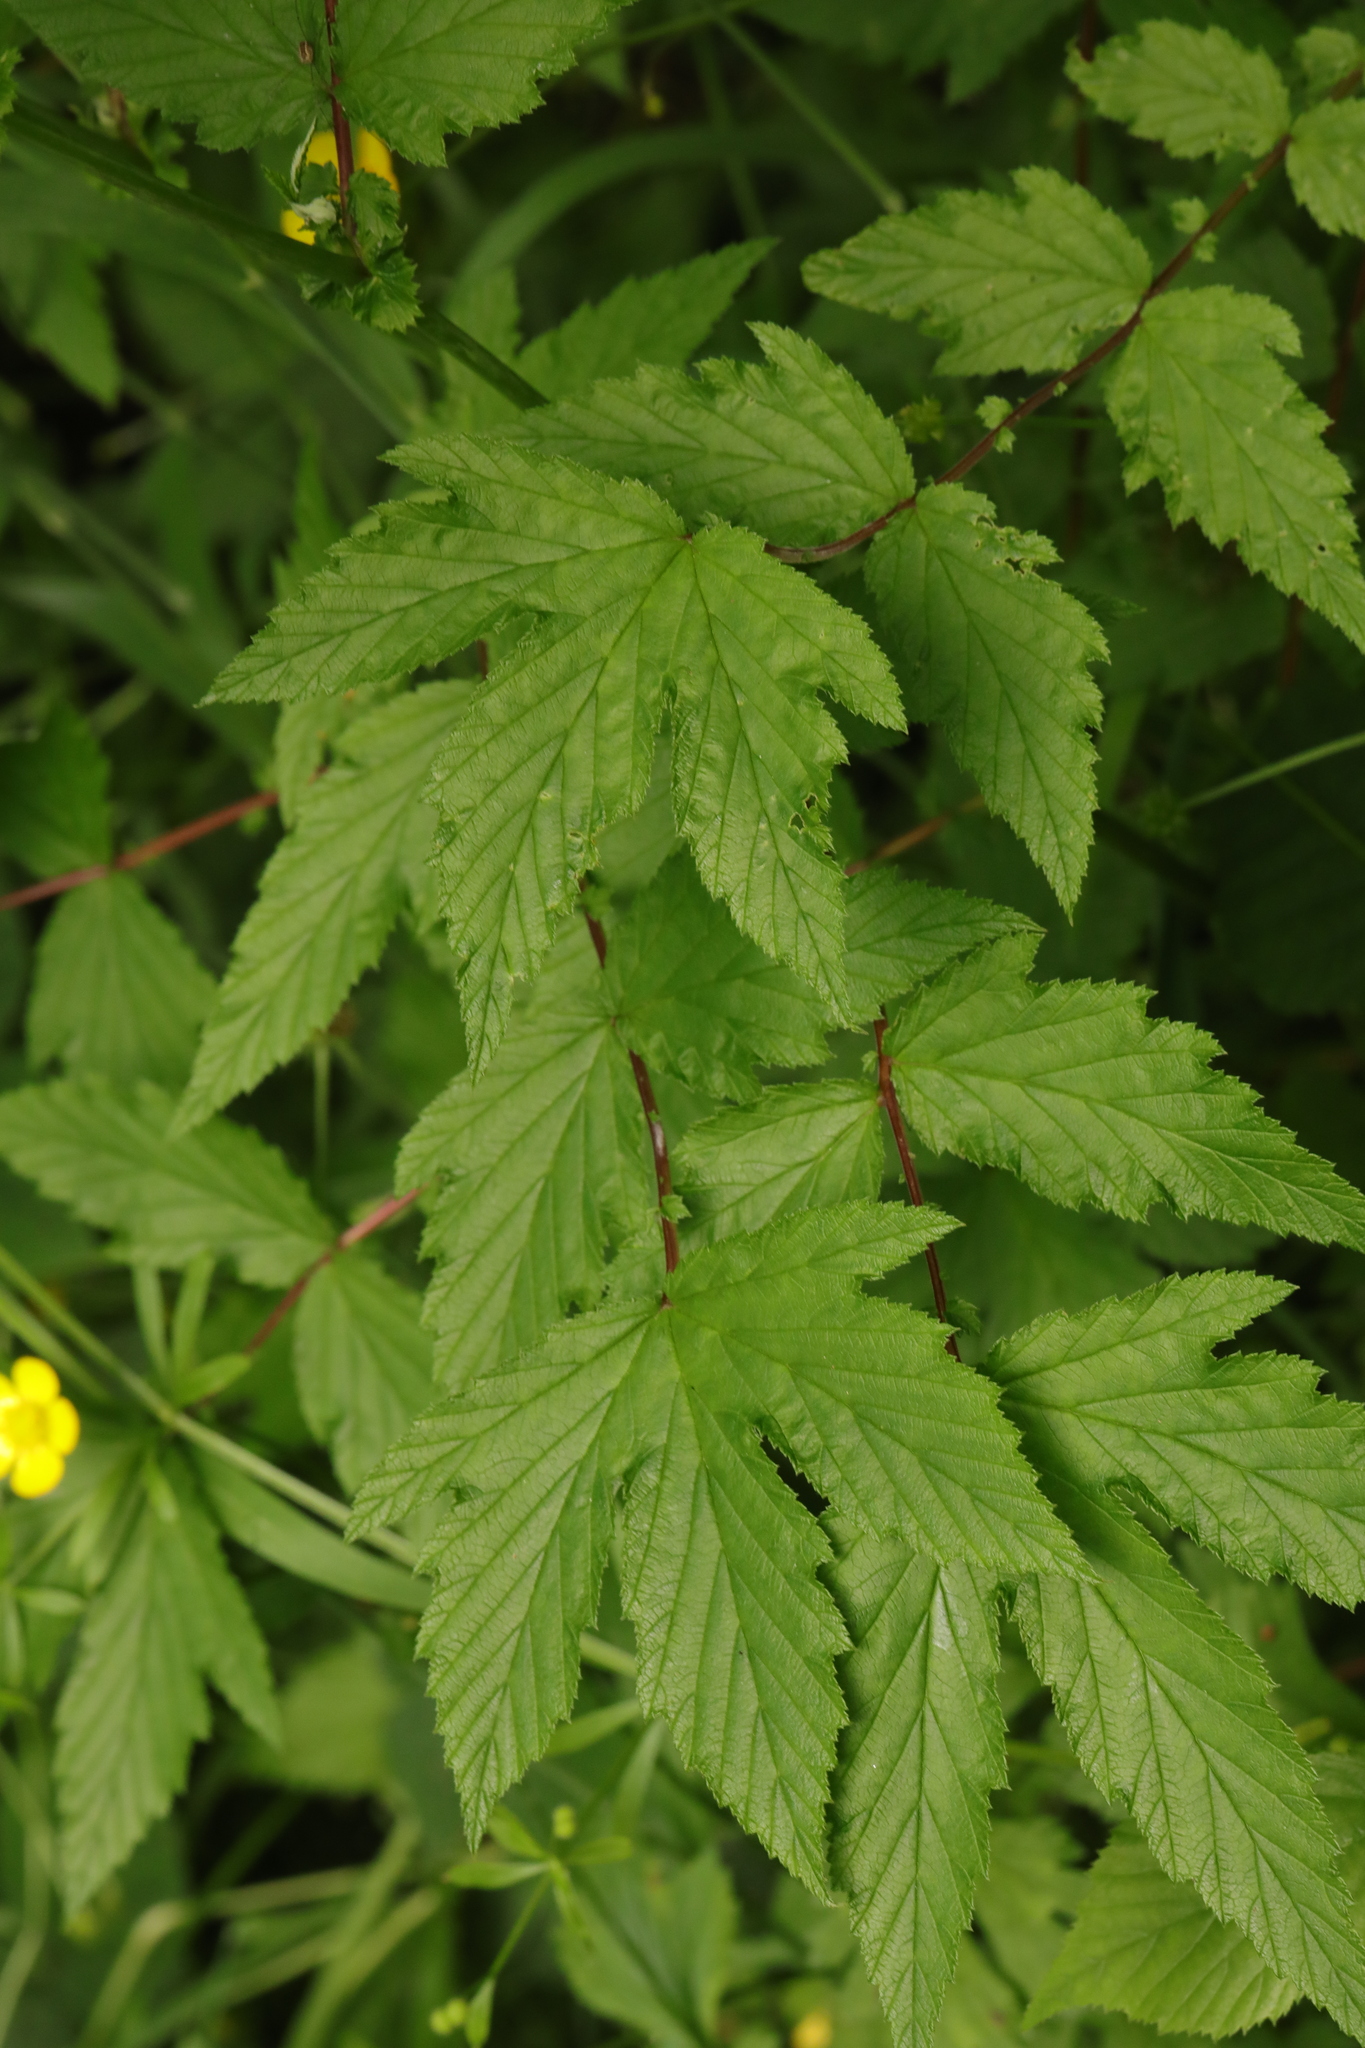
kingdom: Plantae
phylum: Tracheophyta
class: Magnoliopsida
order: Rosales
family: Rosaceae
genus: Filipendula
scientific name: Filipendula ulmaria
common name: Meadowsweet
